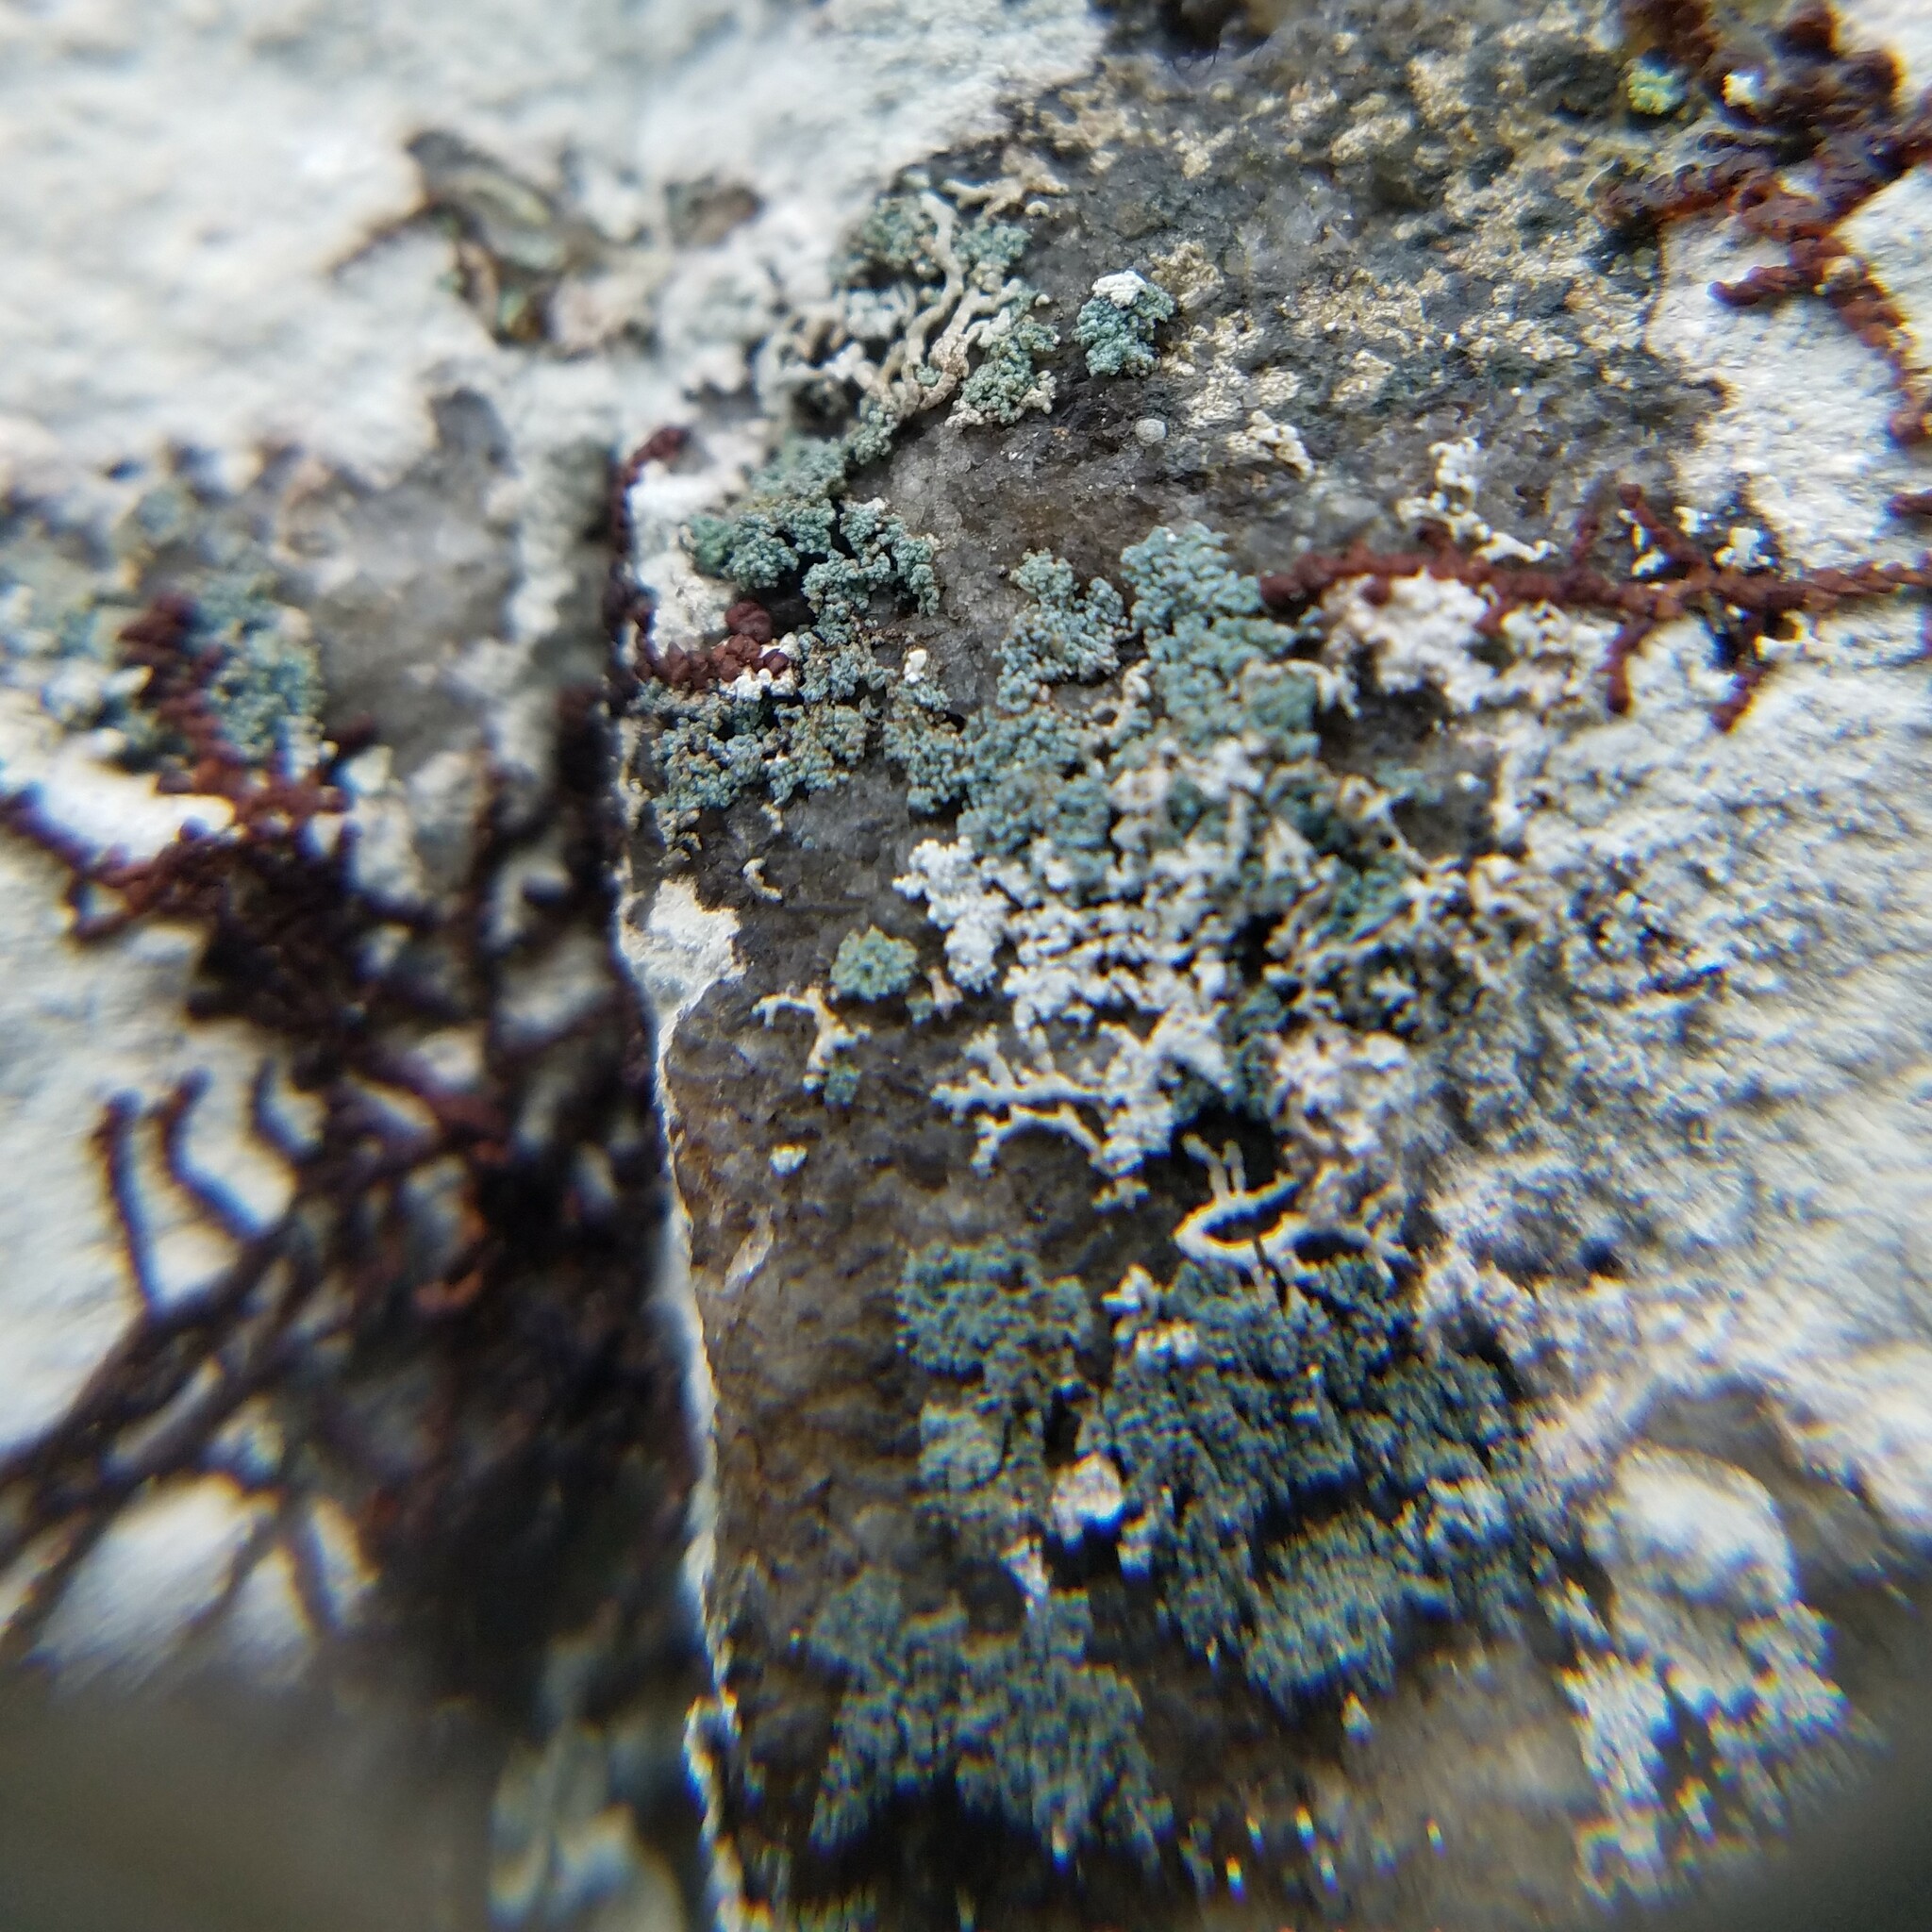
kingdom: Fungi
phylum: Ascomycota
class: Lecanoromycetes
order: Teloschistales
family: Leprocaulaceae
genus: Leprocaulon
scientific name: Leprocaulon adhaerens
